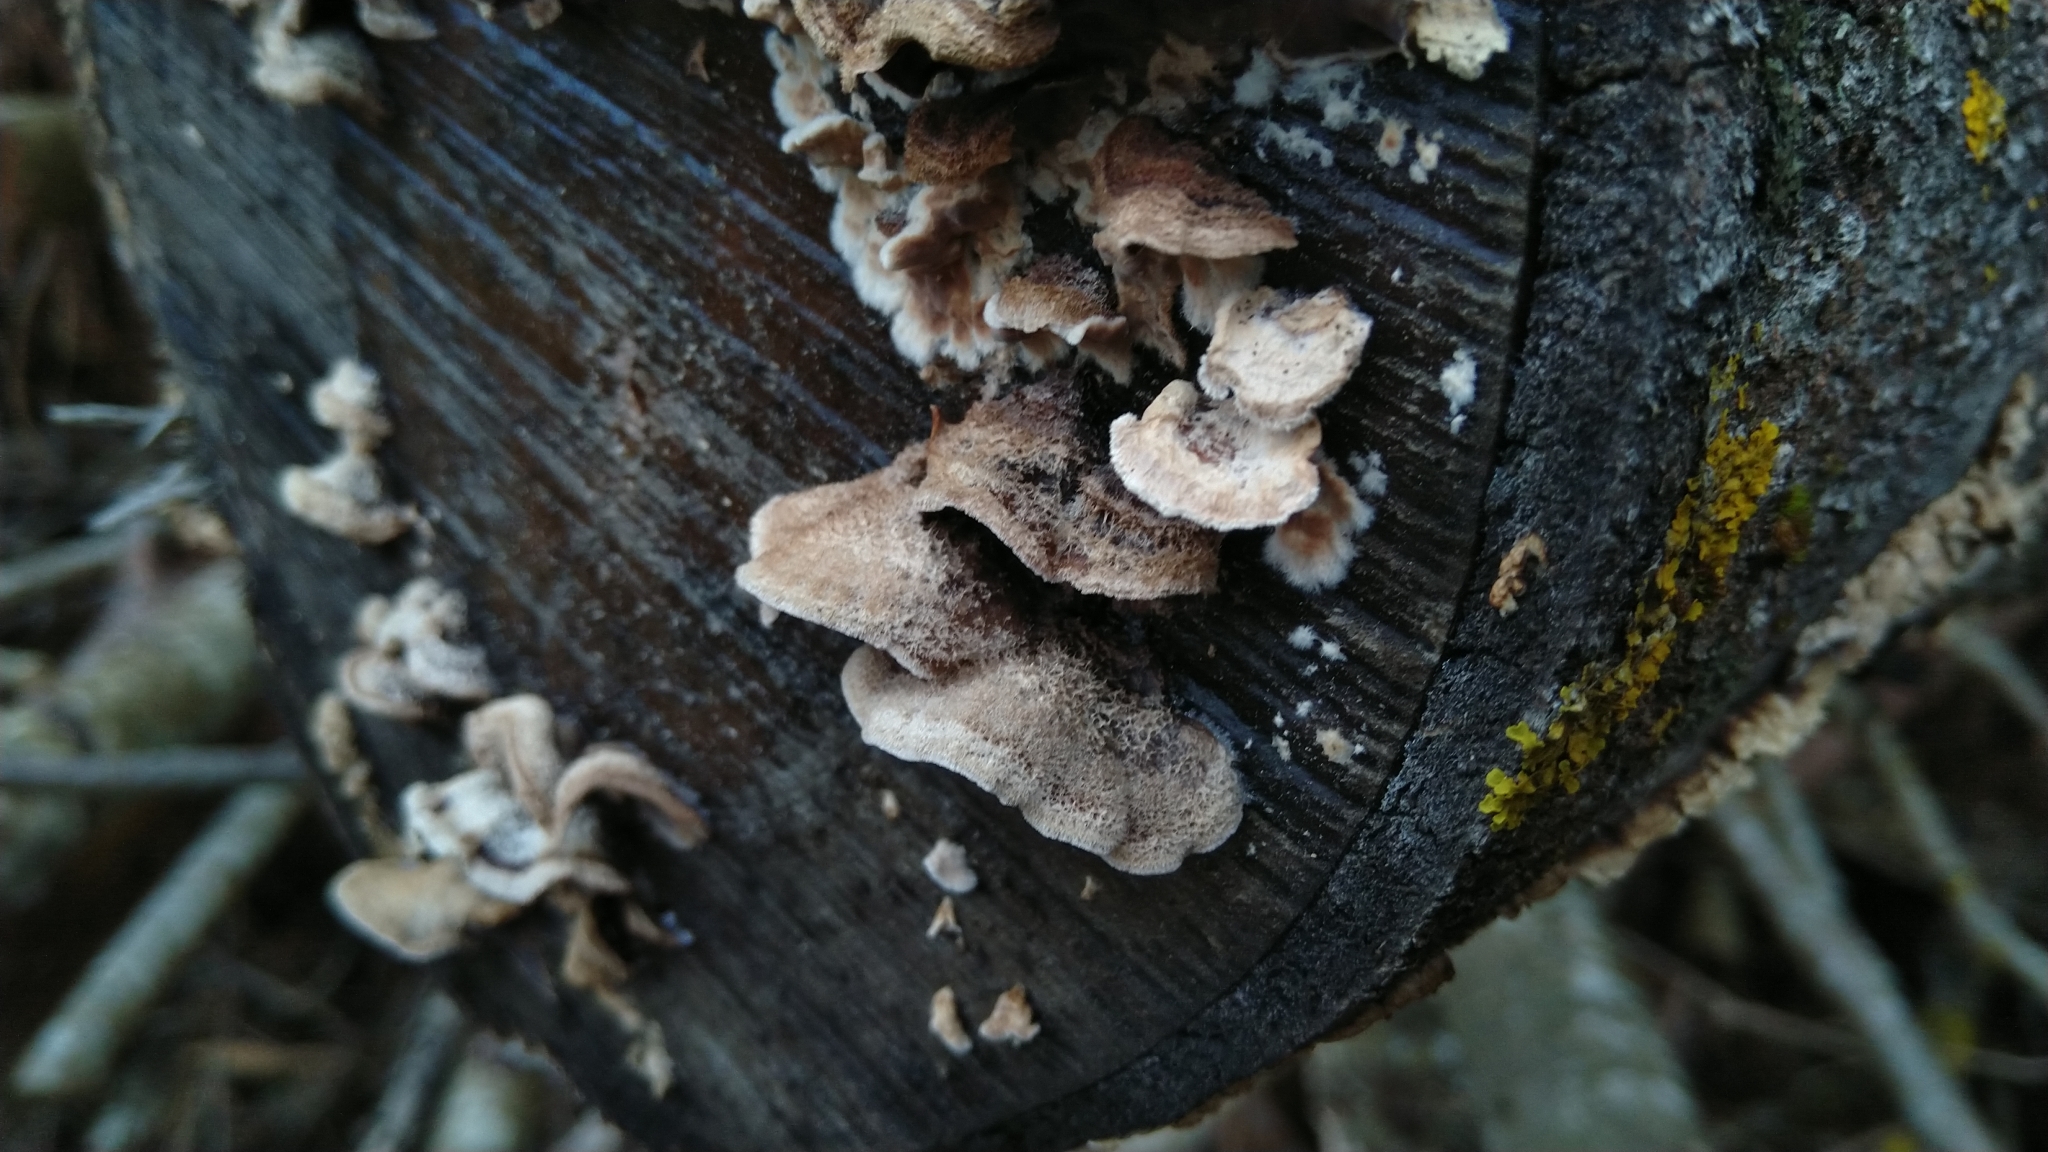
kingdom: Fungi
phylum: Basidiomycota
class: Agaricomycetes
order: Agaricales
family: Cyphellaceae
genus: Chondrostereum
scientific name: Chondrostereum purpureum
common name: Silver leaf disease
